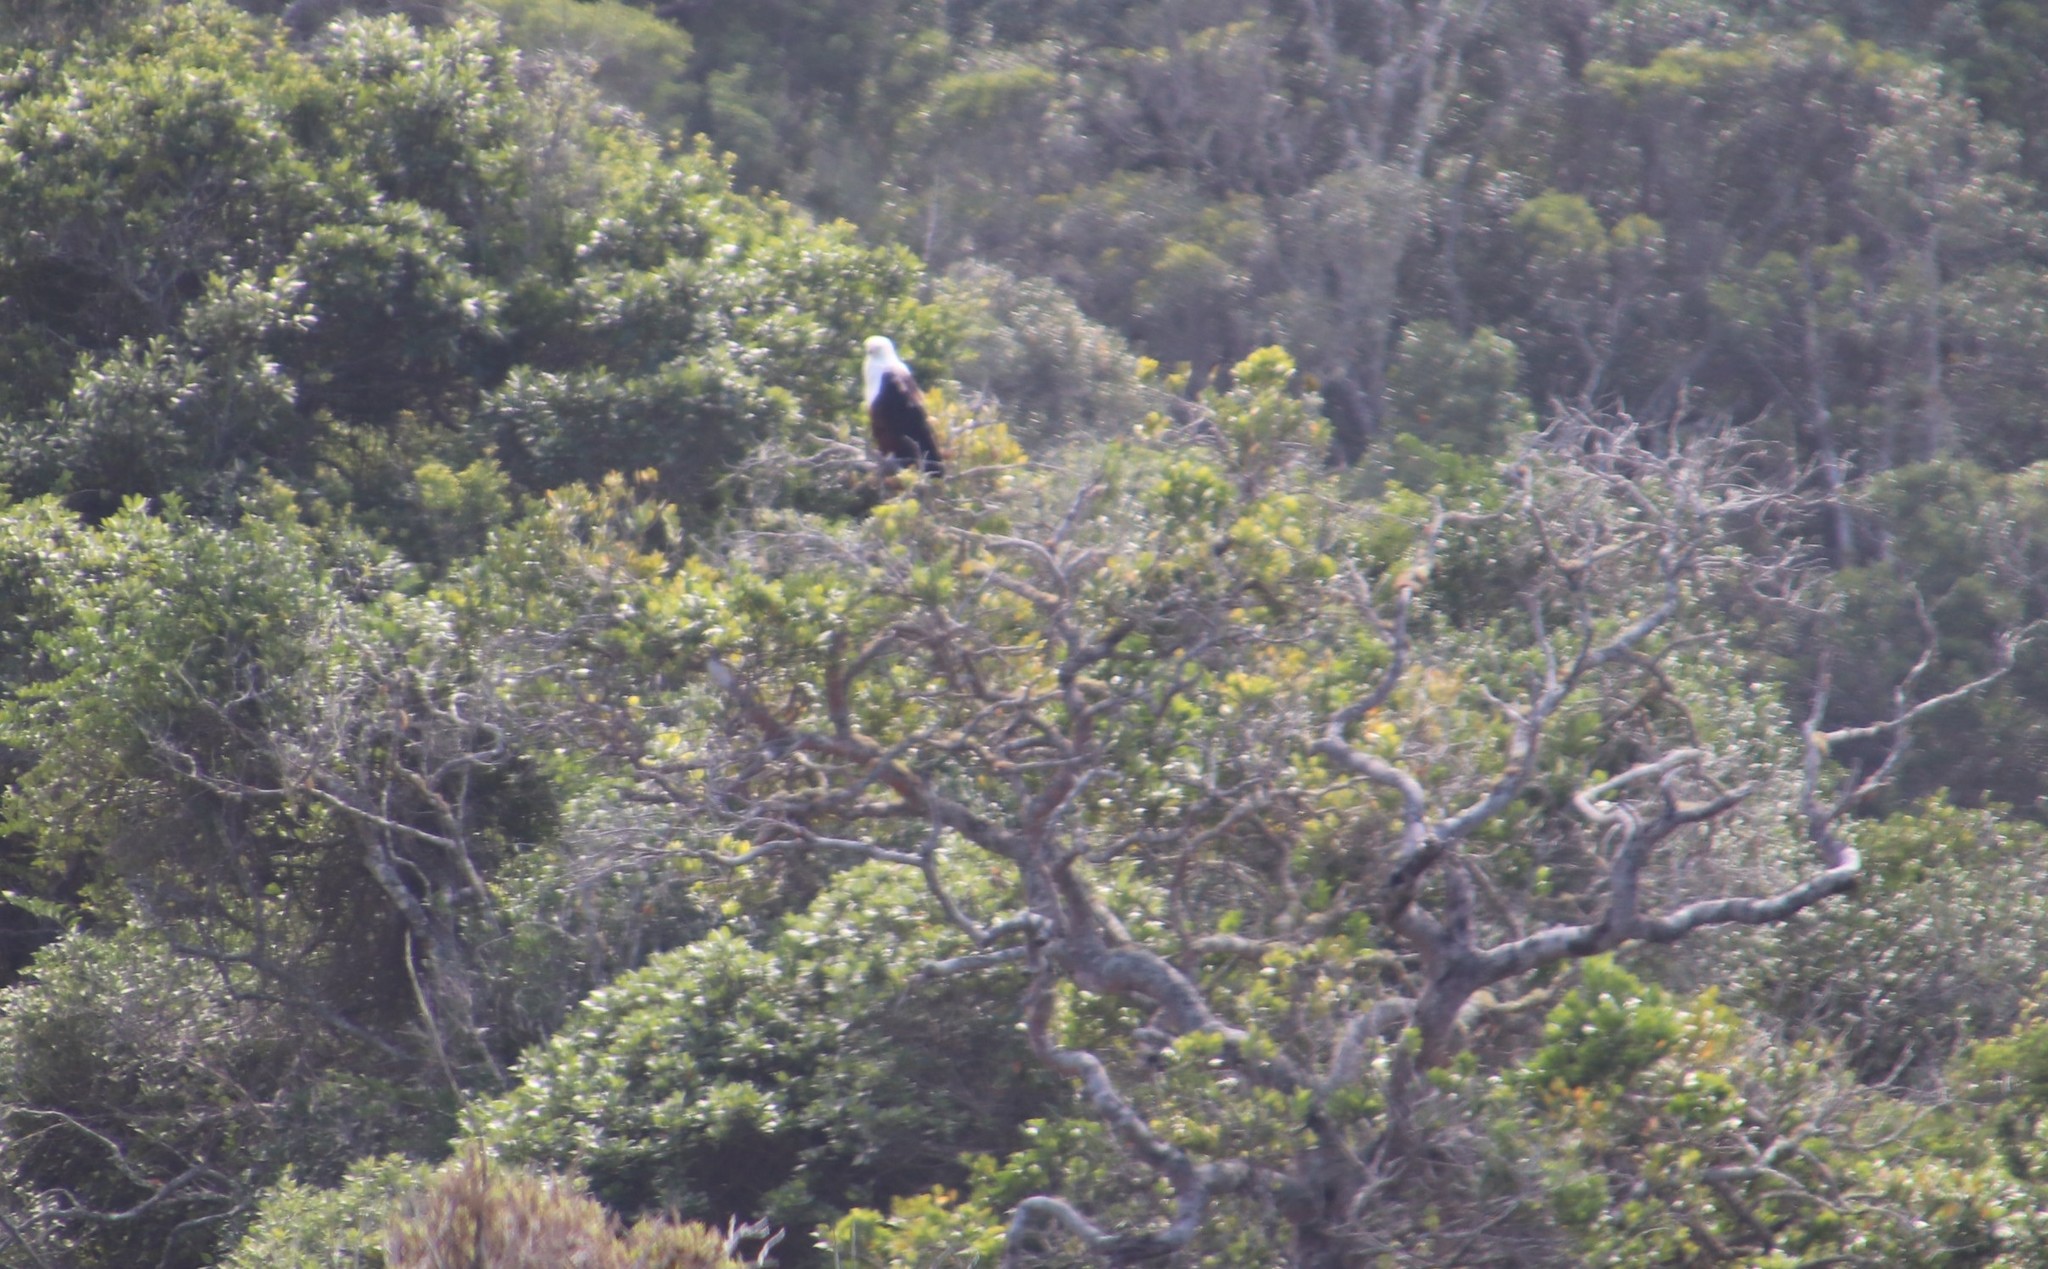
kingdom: Animalia
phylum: Chordata
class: Aves
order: Accipitriformes
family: Accipitridae
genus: Haliaeetus
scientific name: Haliaeetus vocifer
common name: African fish eagle
